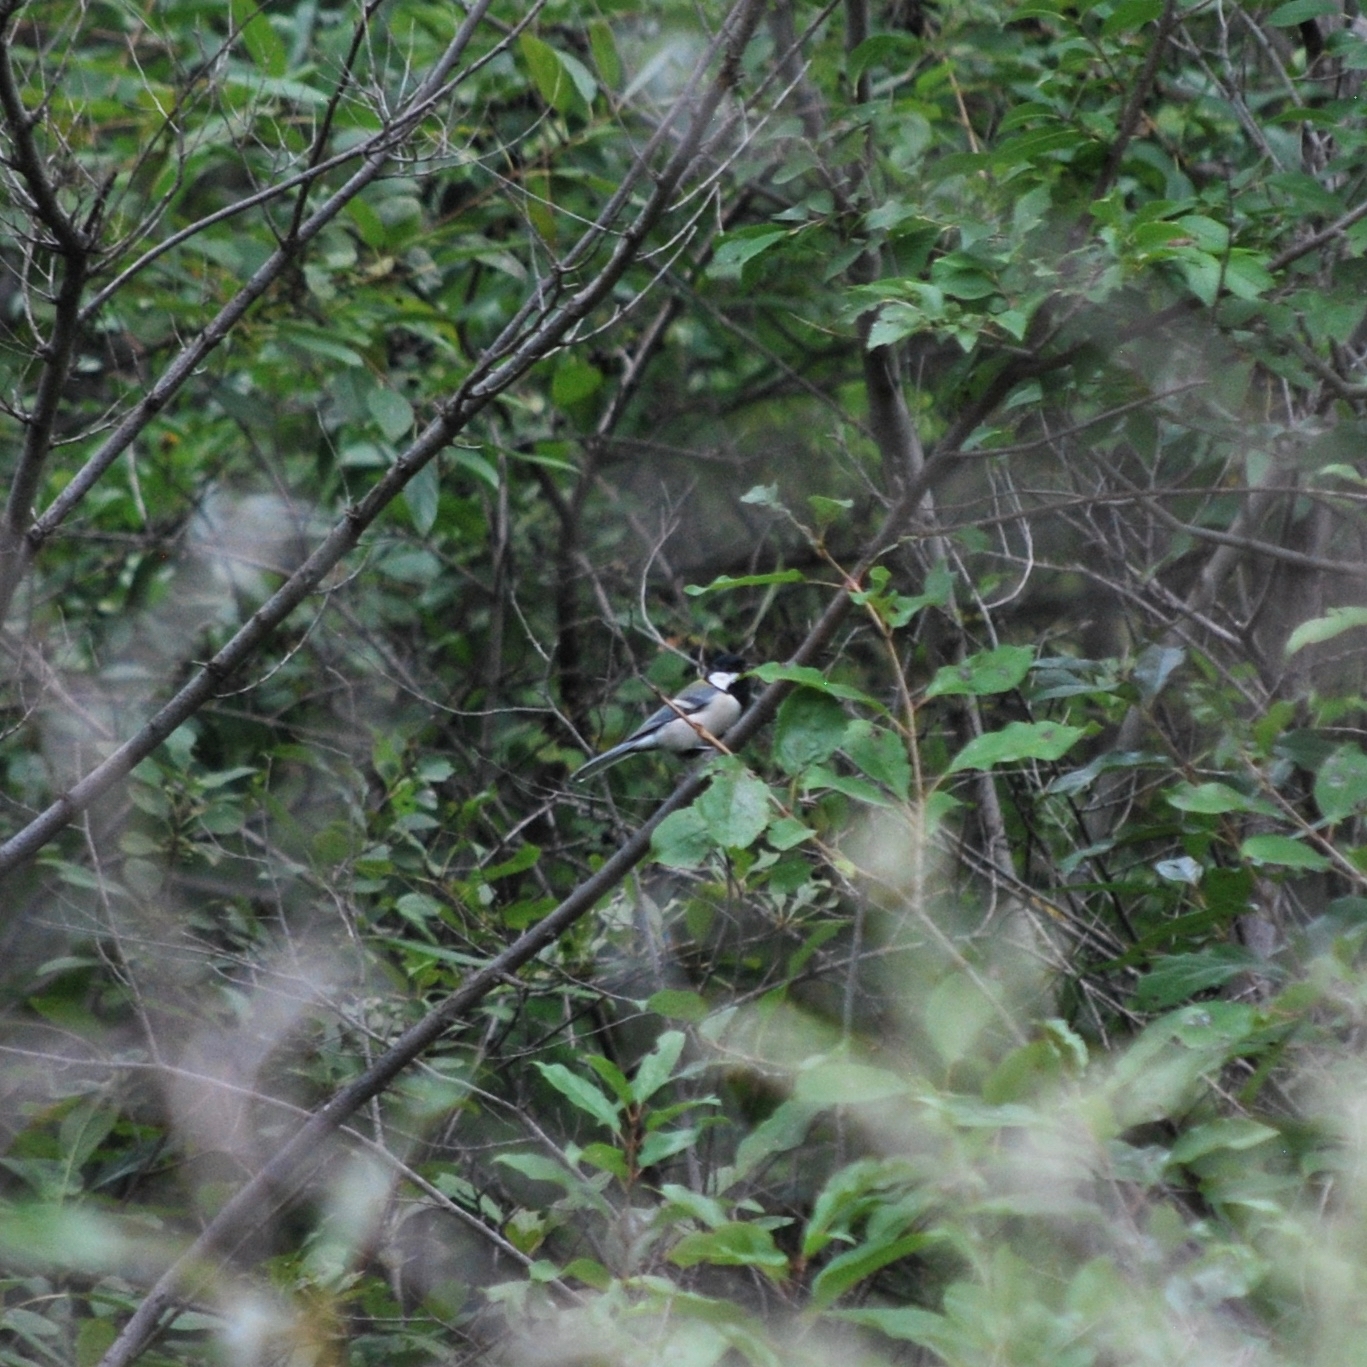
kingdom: Animalia
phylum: Chordata
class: Aves
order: Passeriformes
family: Paridae
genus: Parus
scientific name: Parus minor
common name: Japanese tit
